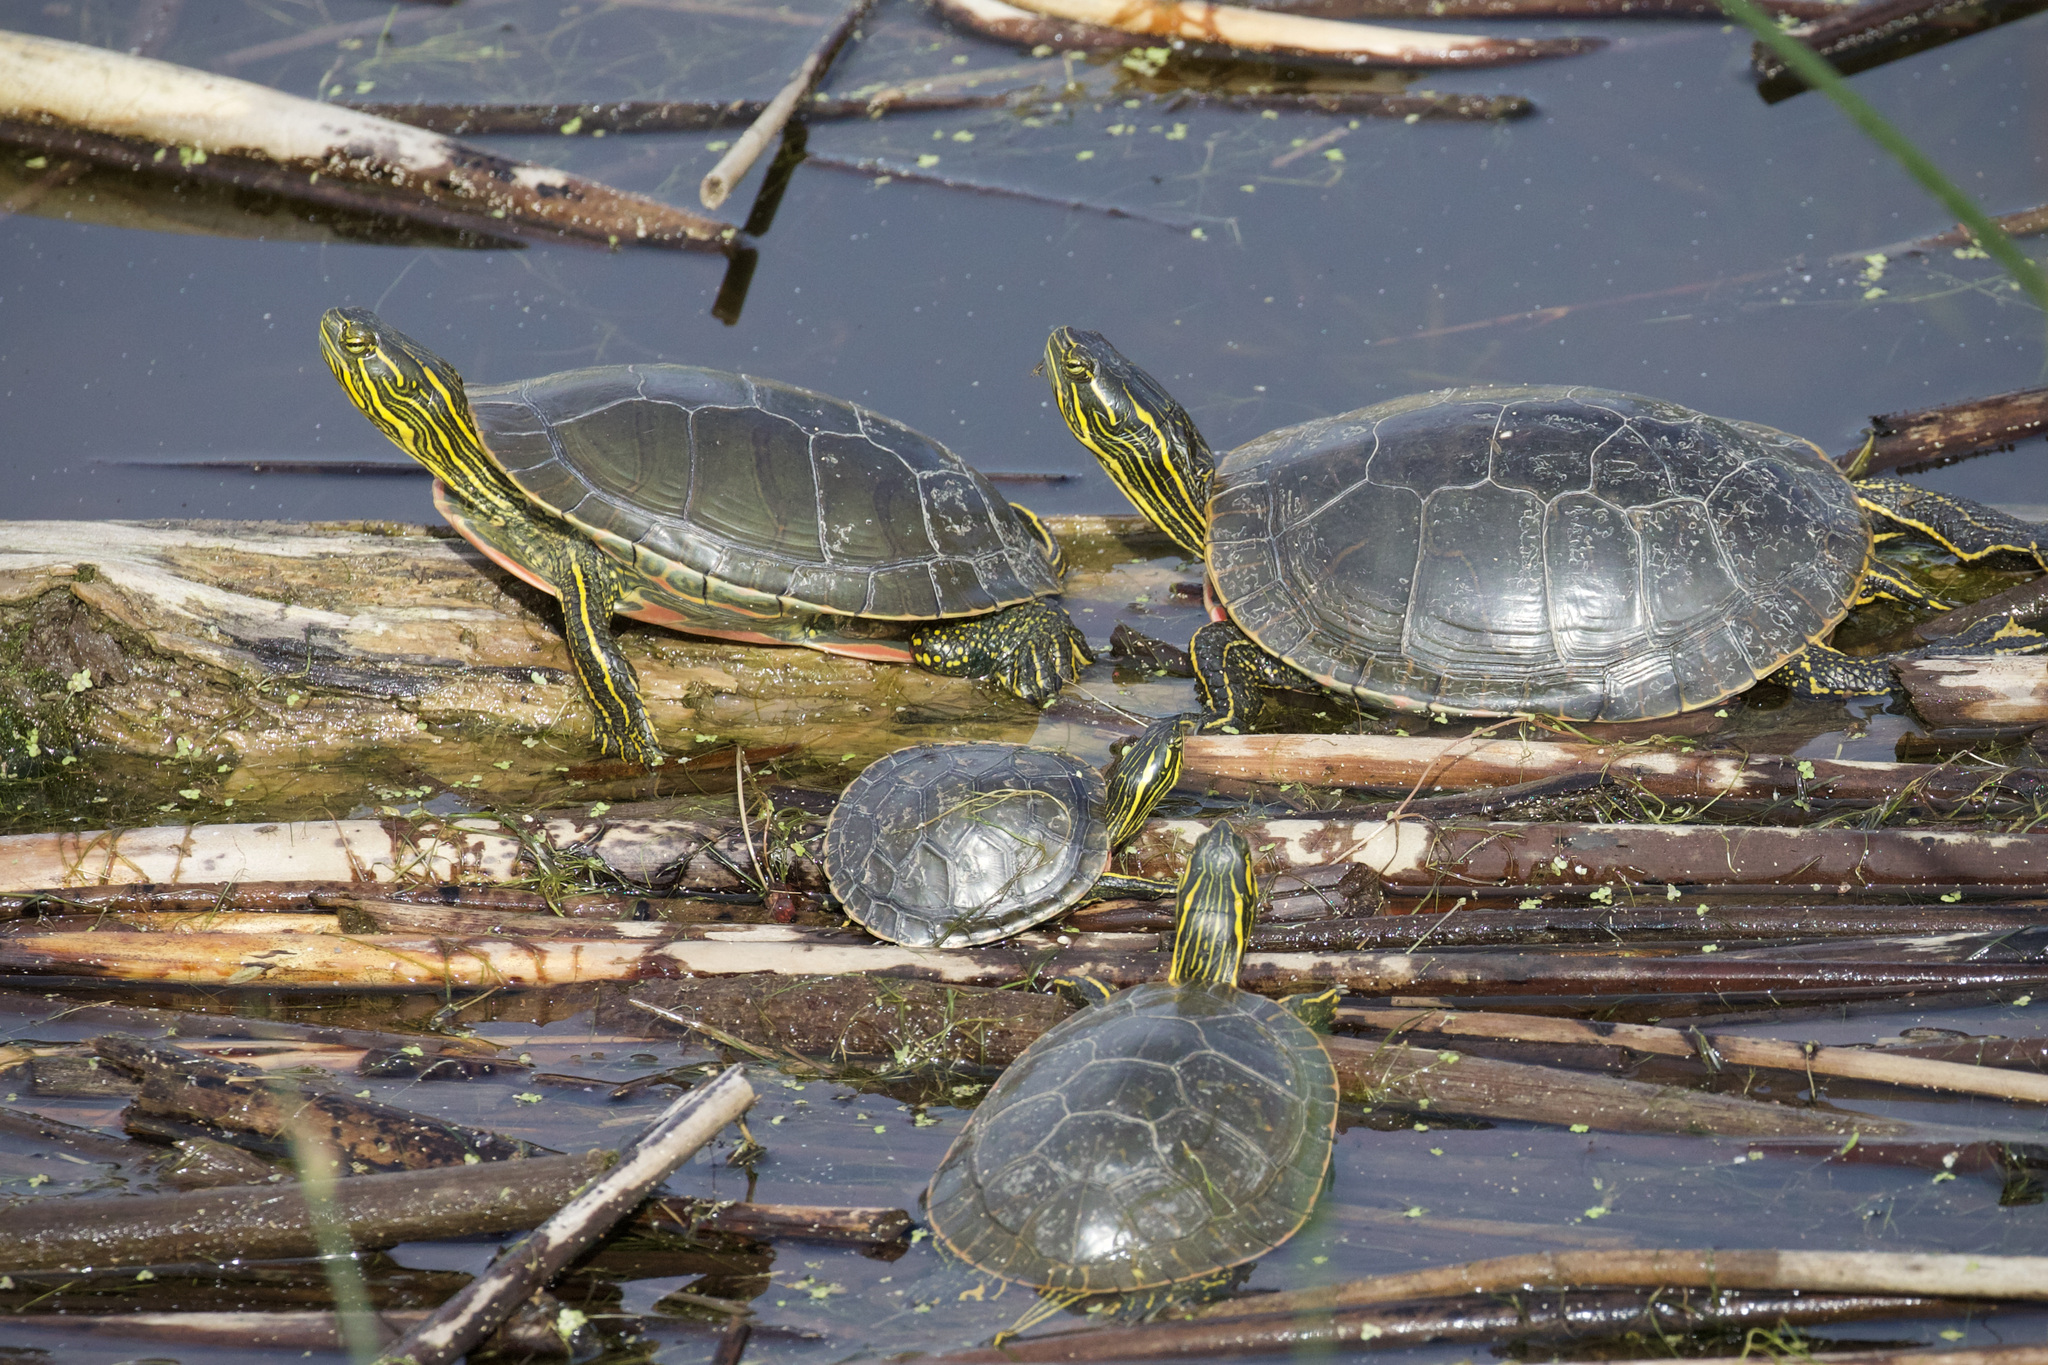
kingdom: Animalia
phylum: Chordata
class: Testudines
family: Emydidae
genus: Chrysemys
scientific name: Chrysemys picta
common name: Painted turtle
